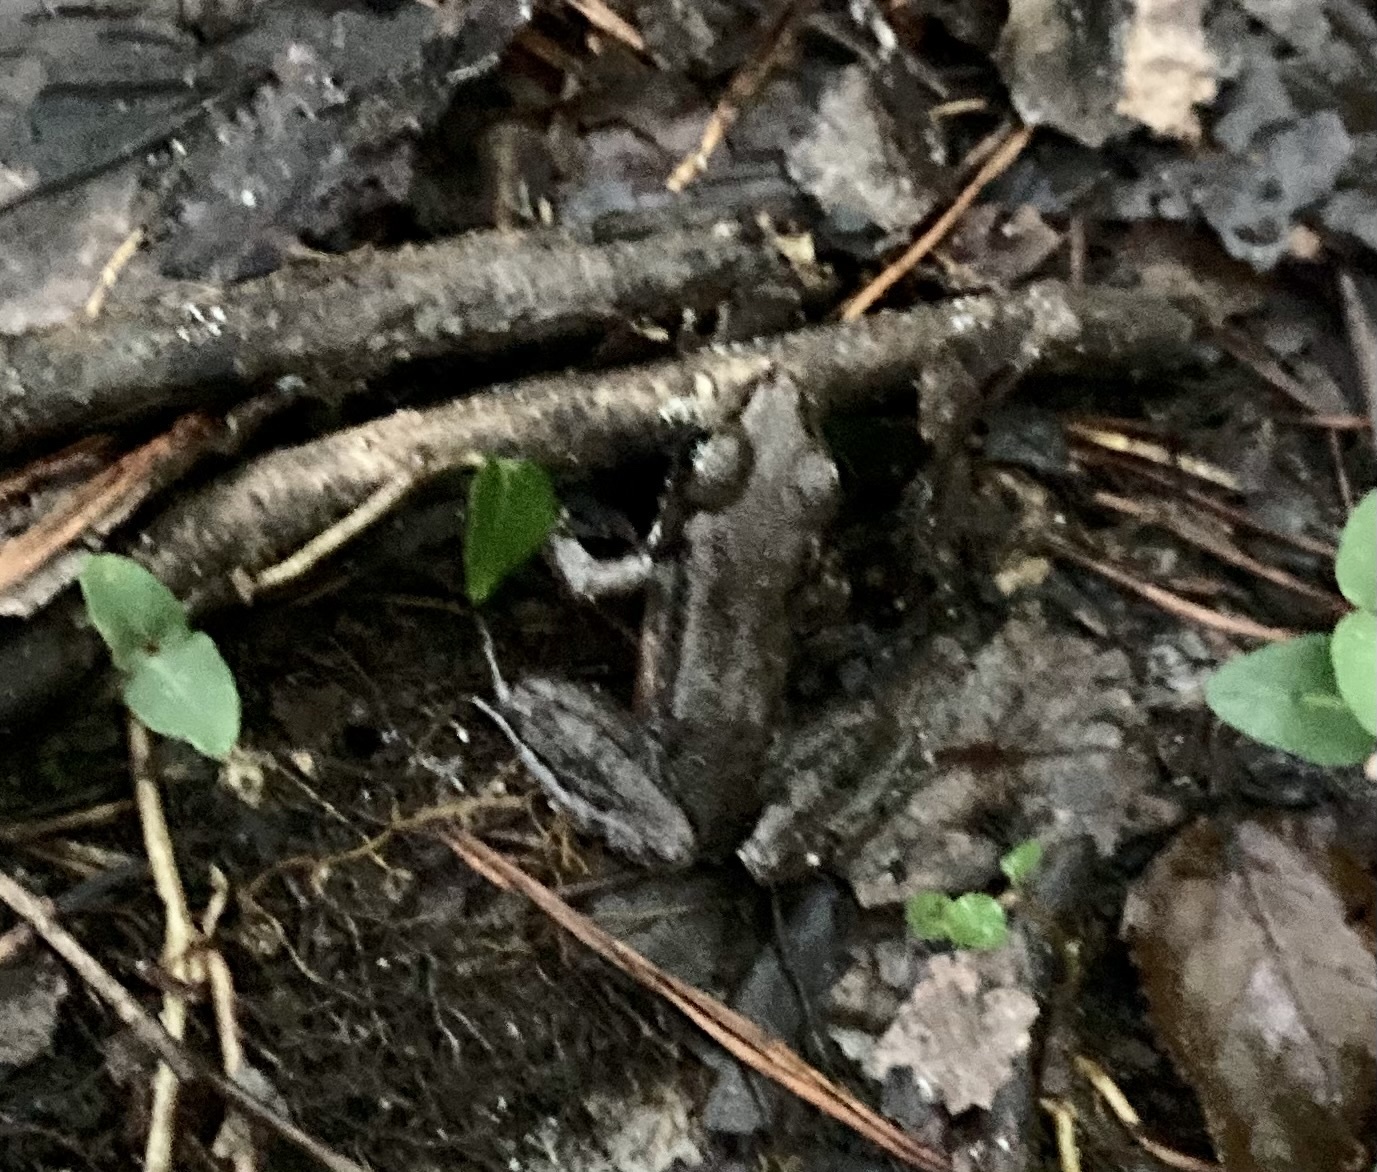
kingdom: Animalia
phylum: Chordata
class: Amphibia
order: Anura
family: Ranidae
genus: Lithobates
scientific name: Lithobates clamitans
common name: Green frog
